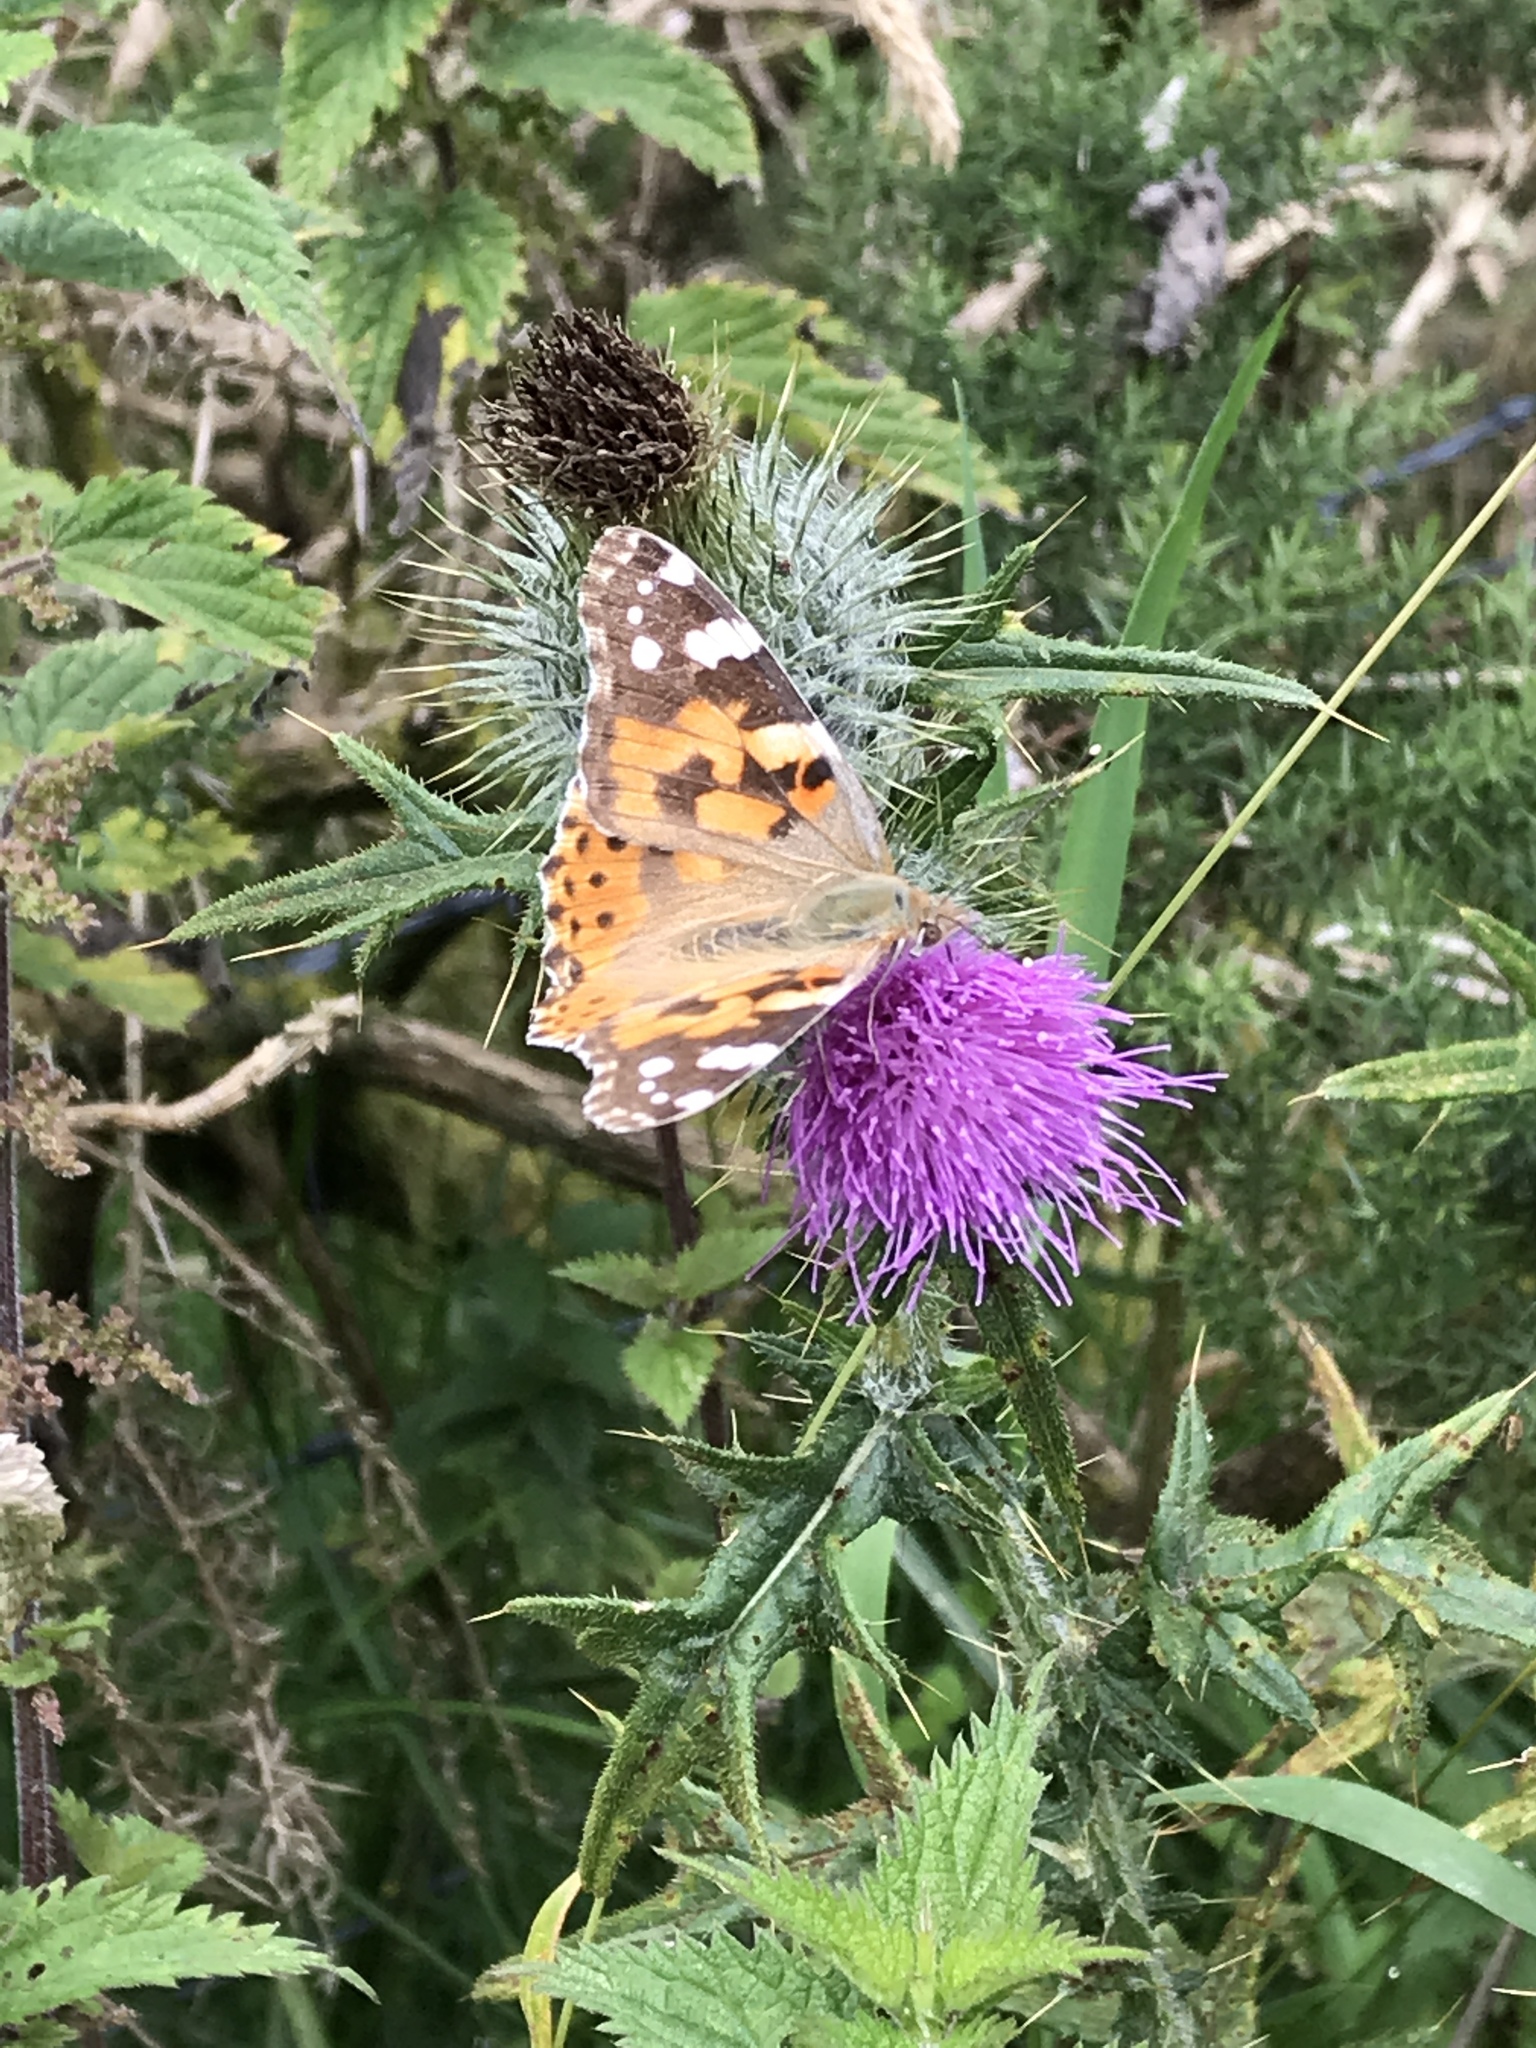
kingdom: Animalia
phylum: Arthropoda
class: Insecta
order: Lepidoptera
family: Nymphalidae
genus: Vanessa
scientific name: Vanessa cardui
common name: Painted lady
